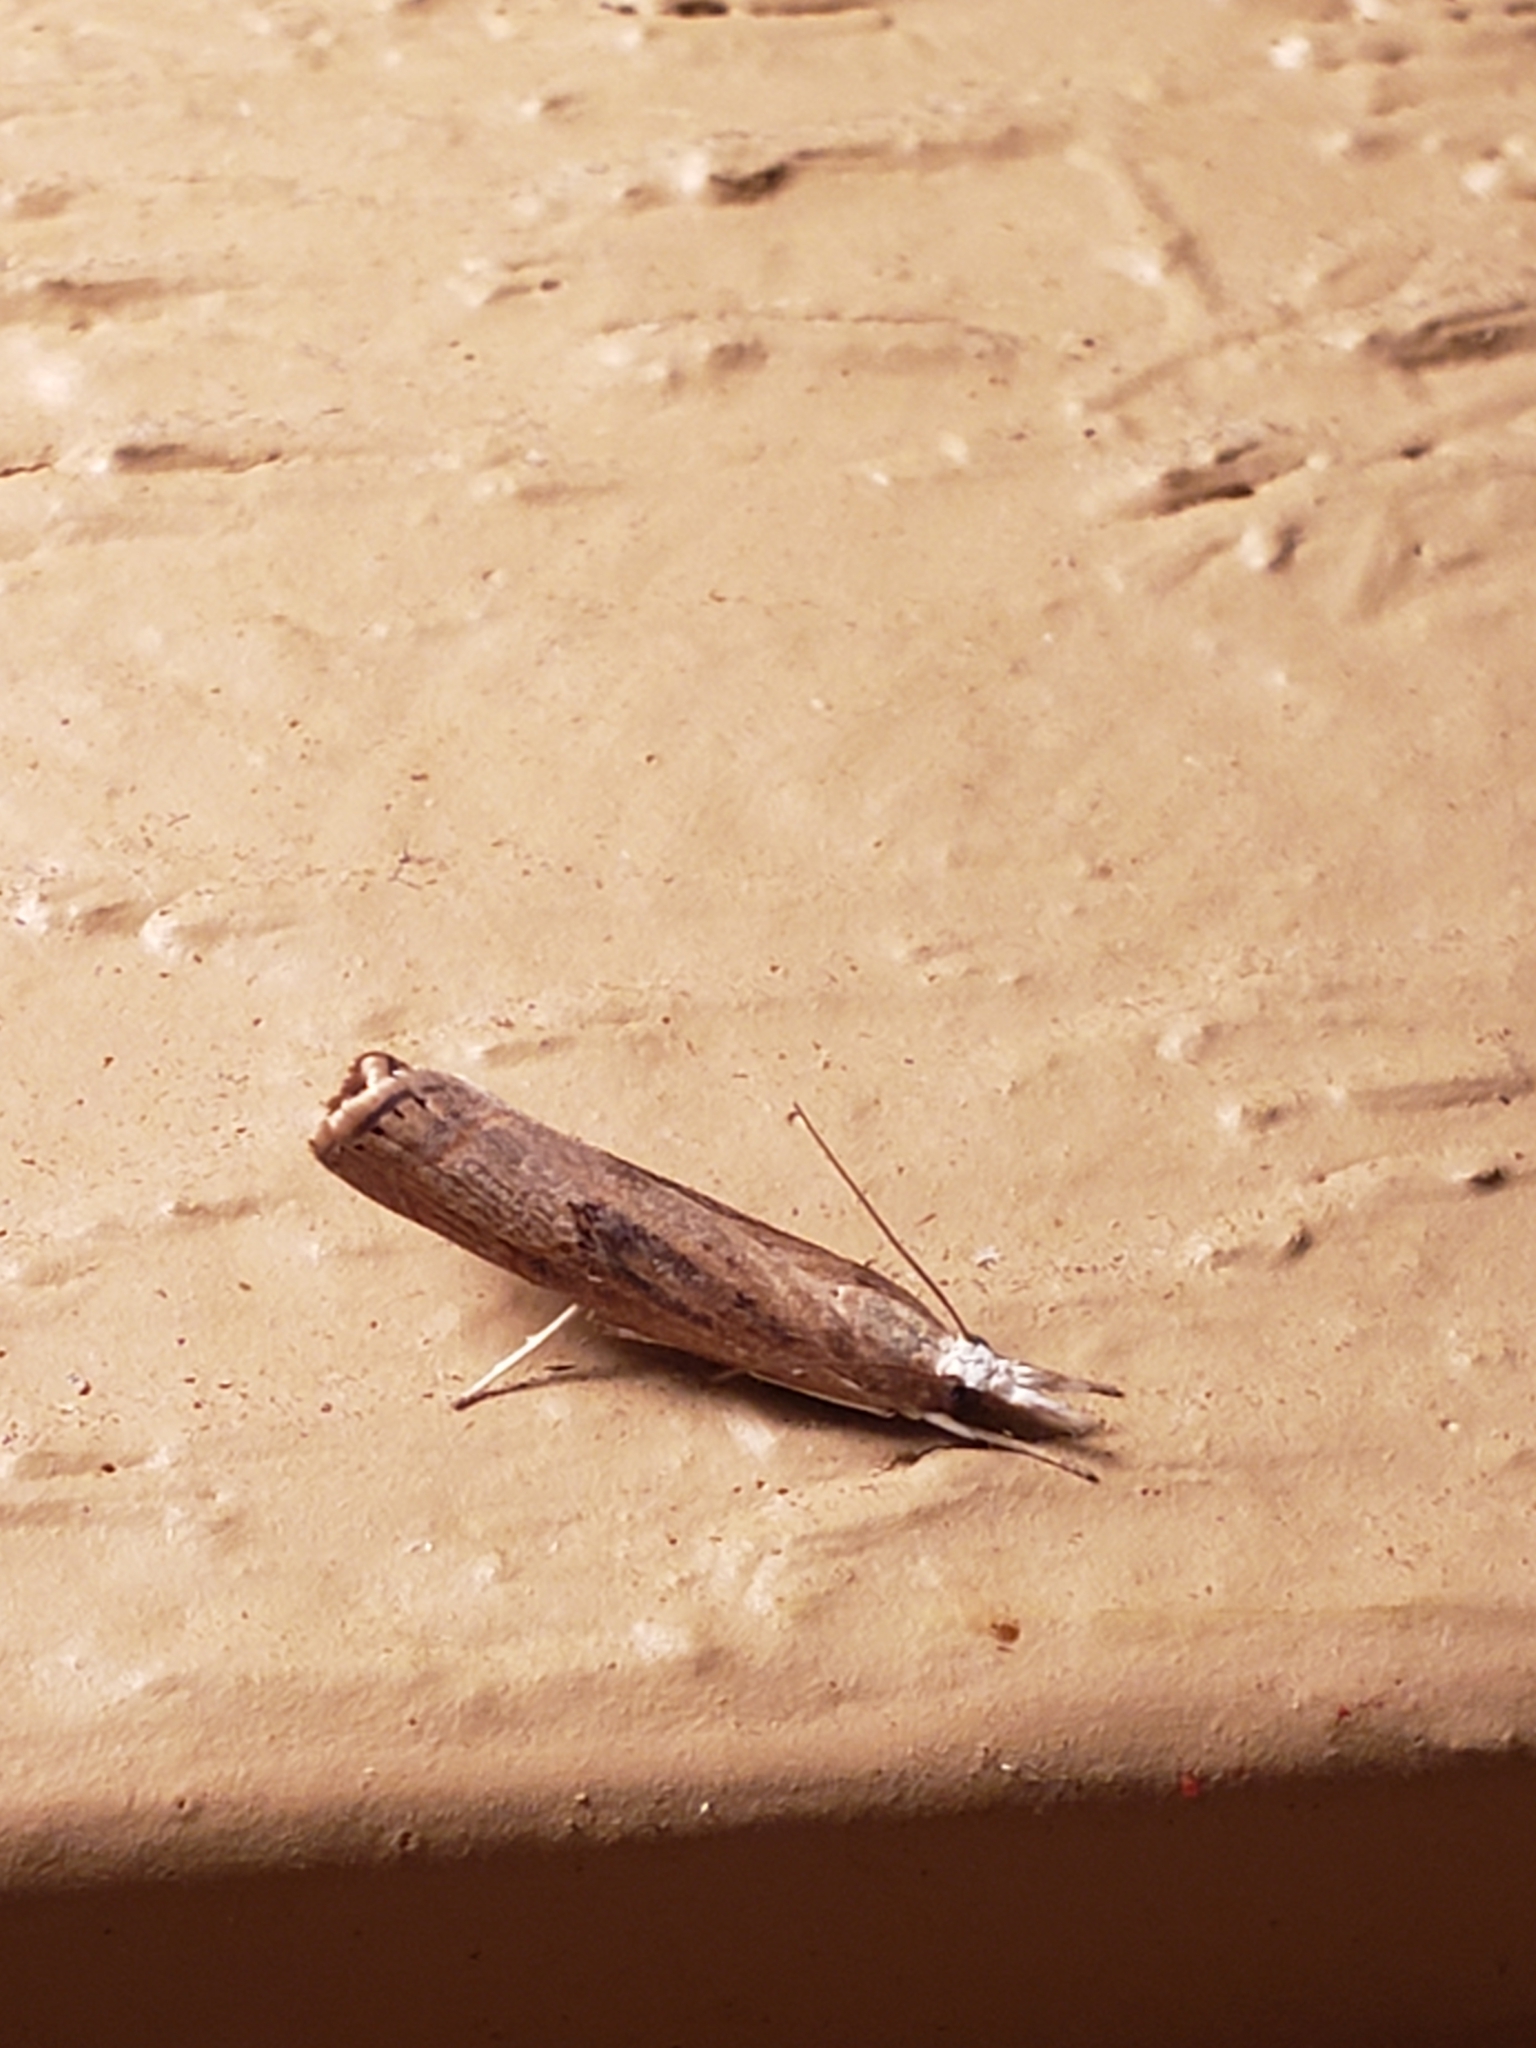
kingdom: Animalia
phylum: Arthropoda
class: Insecta
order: Lepidoptera
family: Crambidae
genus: Parapediasia
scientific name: Parapediasia teterellus
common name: Bluegrass webworm moth
